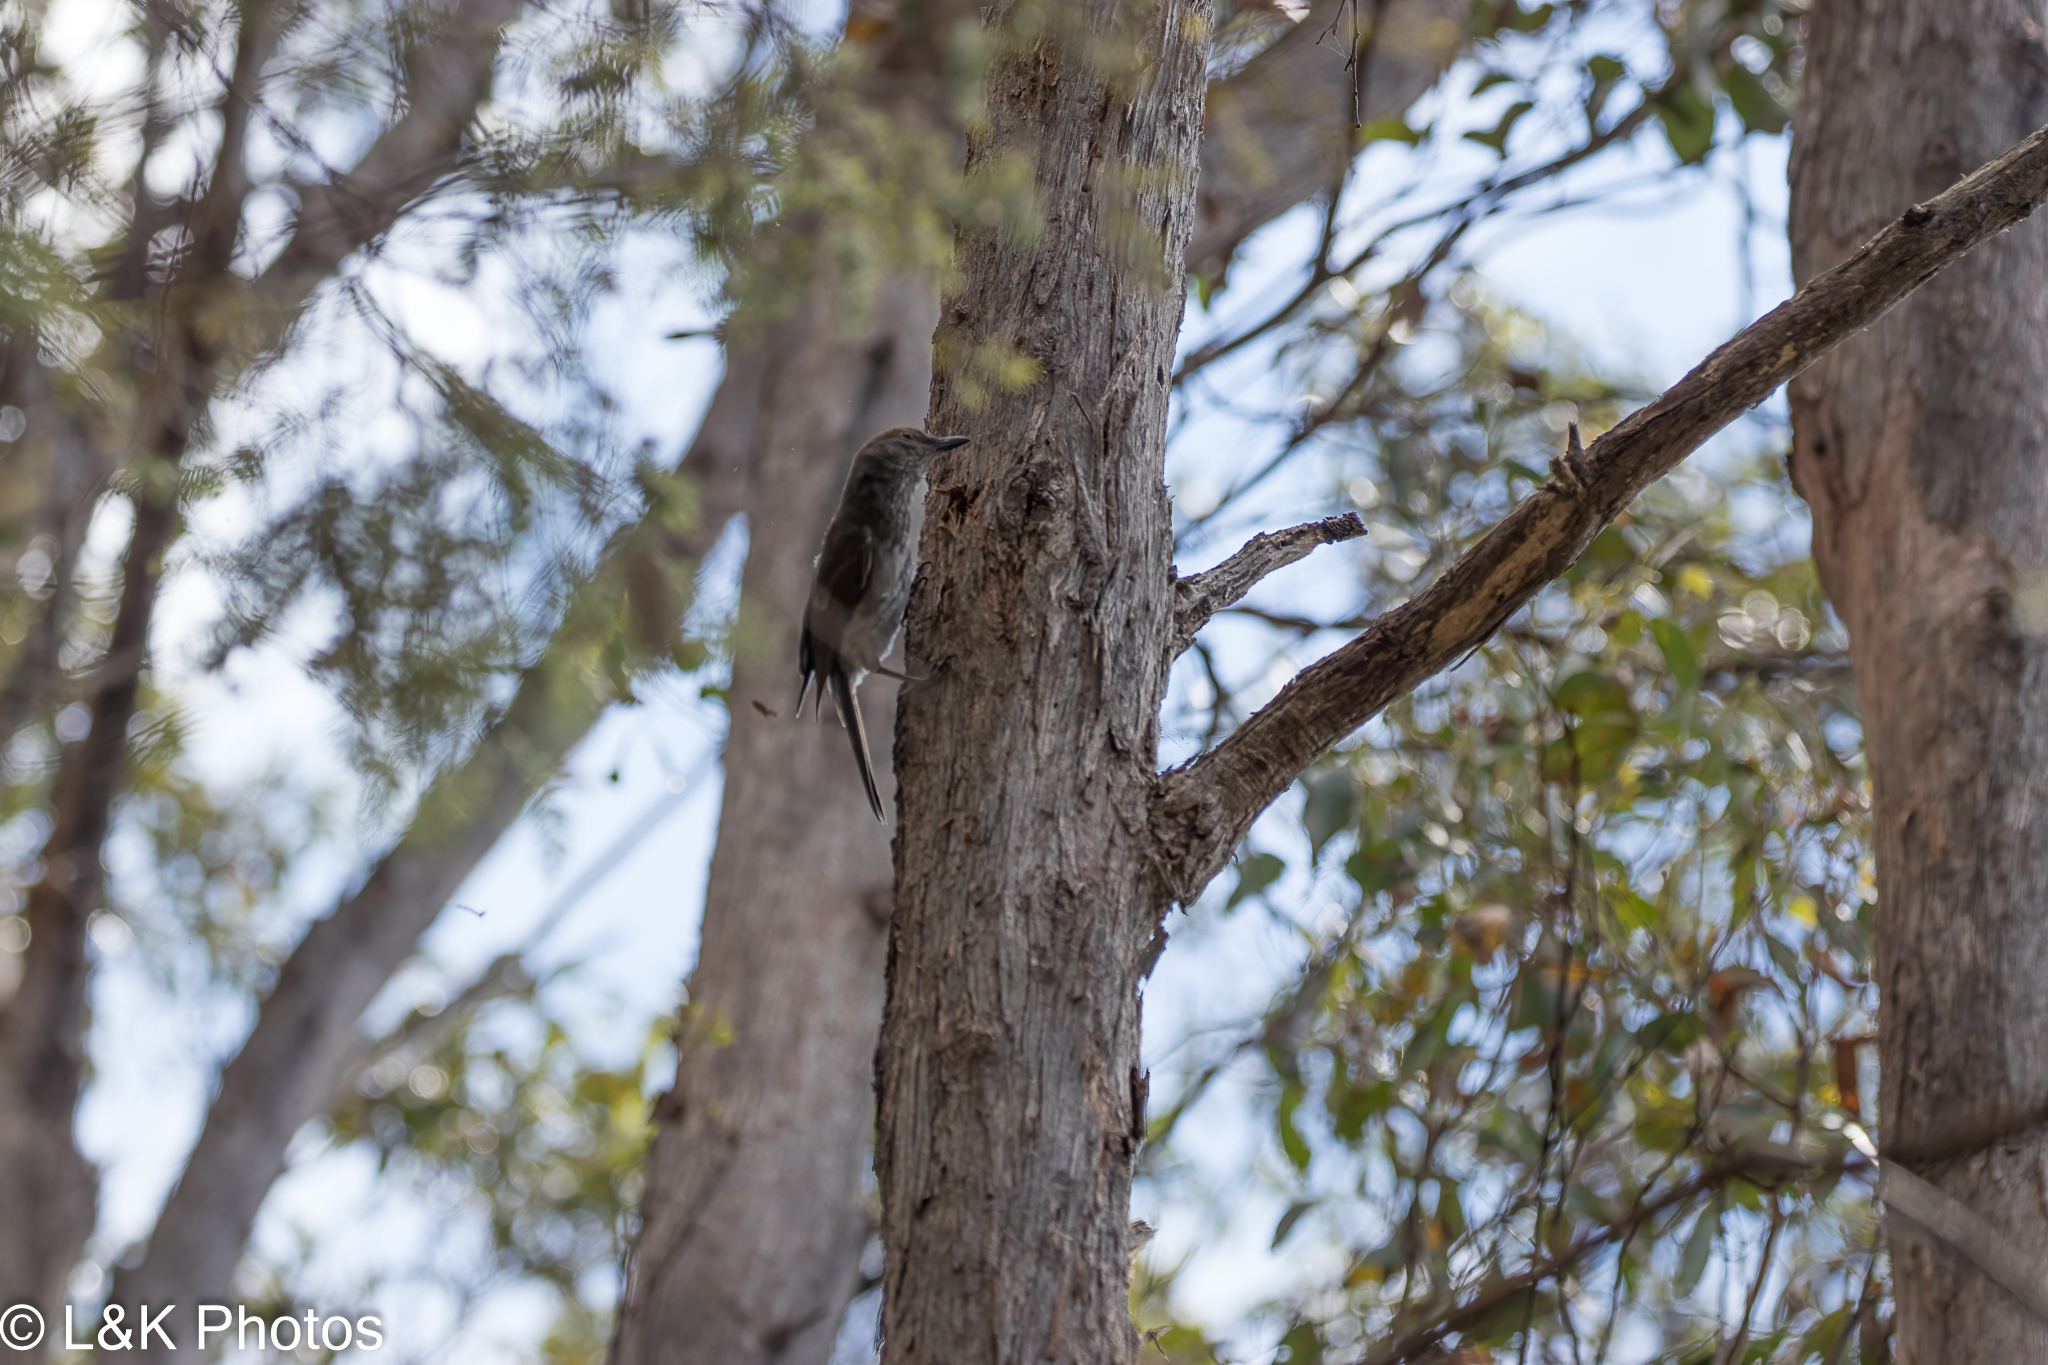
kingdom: Animalia
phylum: Chordata
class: Aves
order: Passeriformes
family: Pachycephalidae
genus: Colluricincla
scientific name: Colluricincla harmonica
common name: Grey shrikethrush
